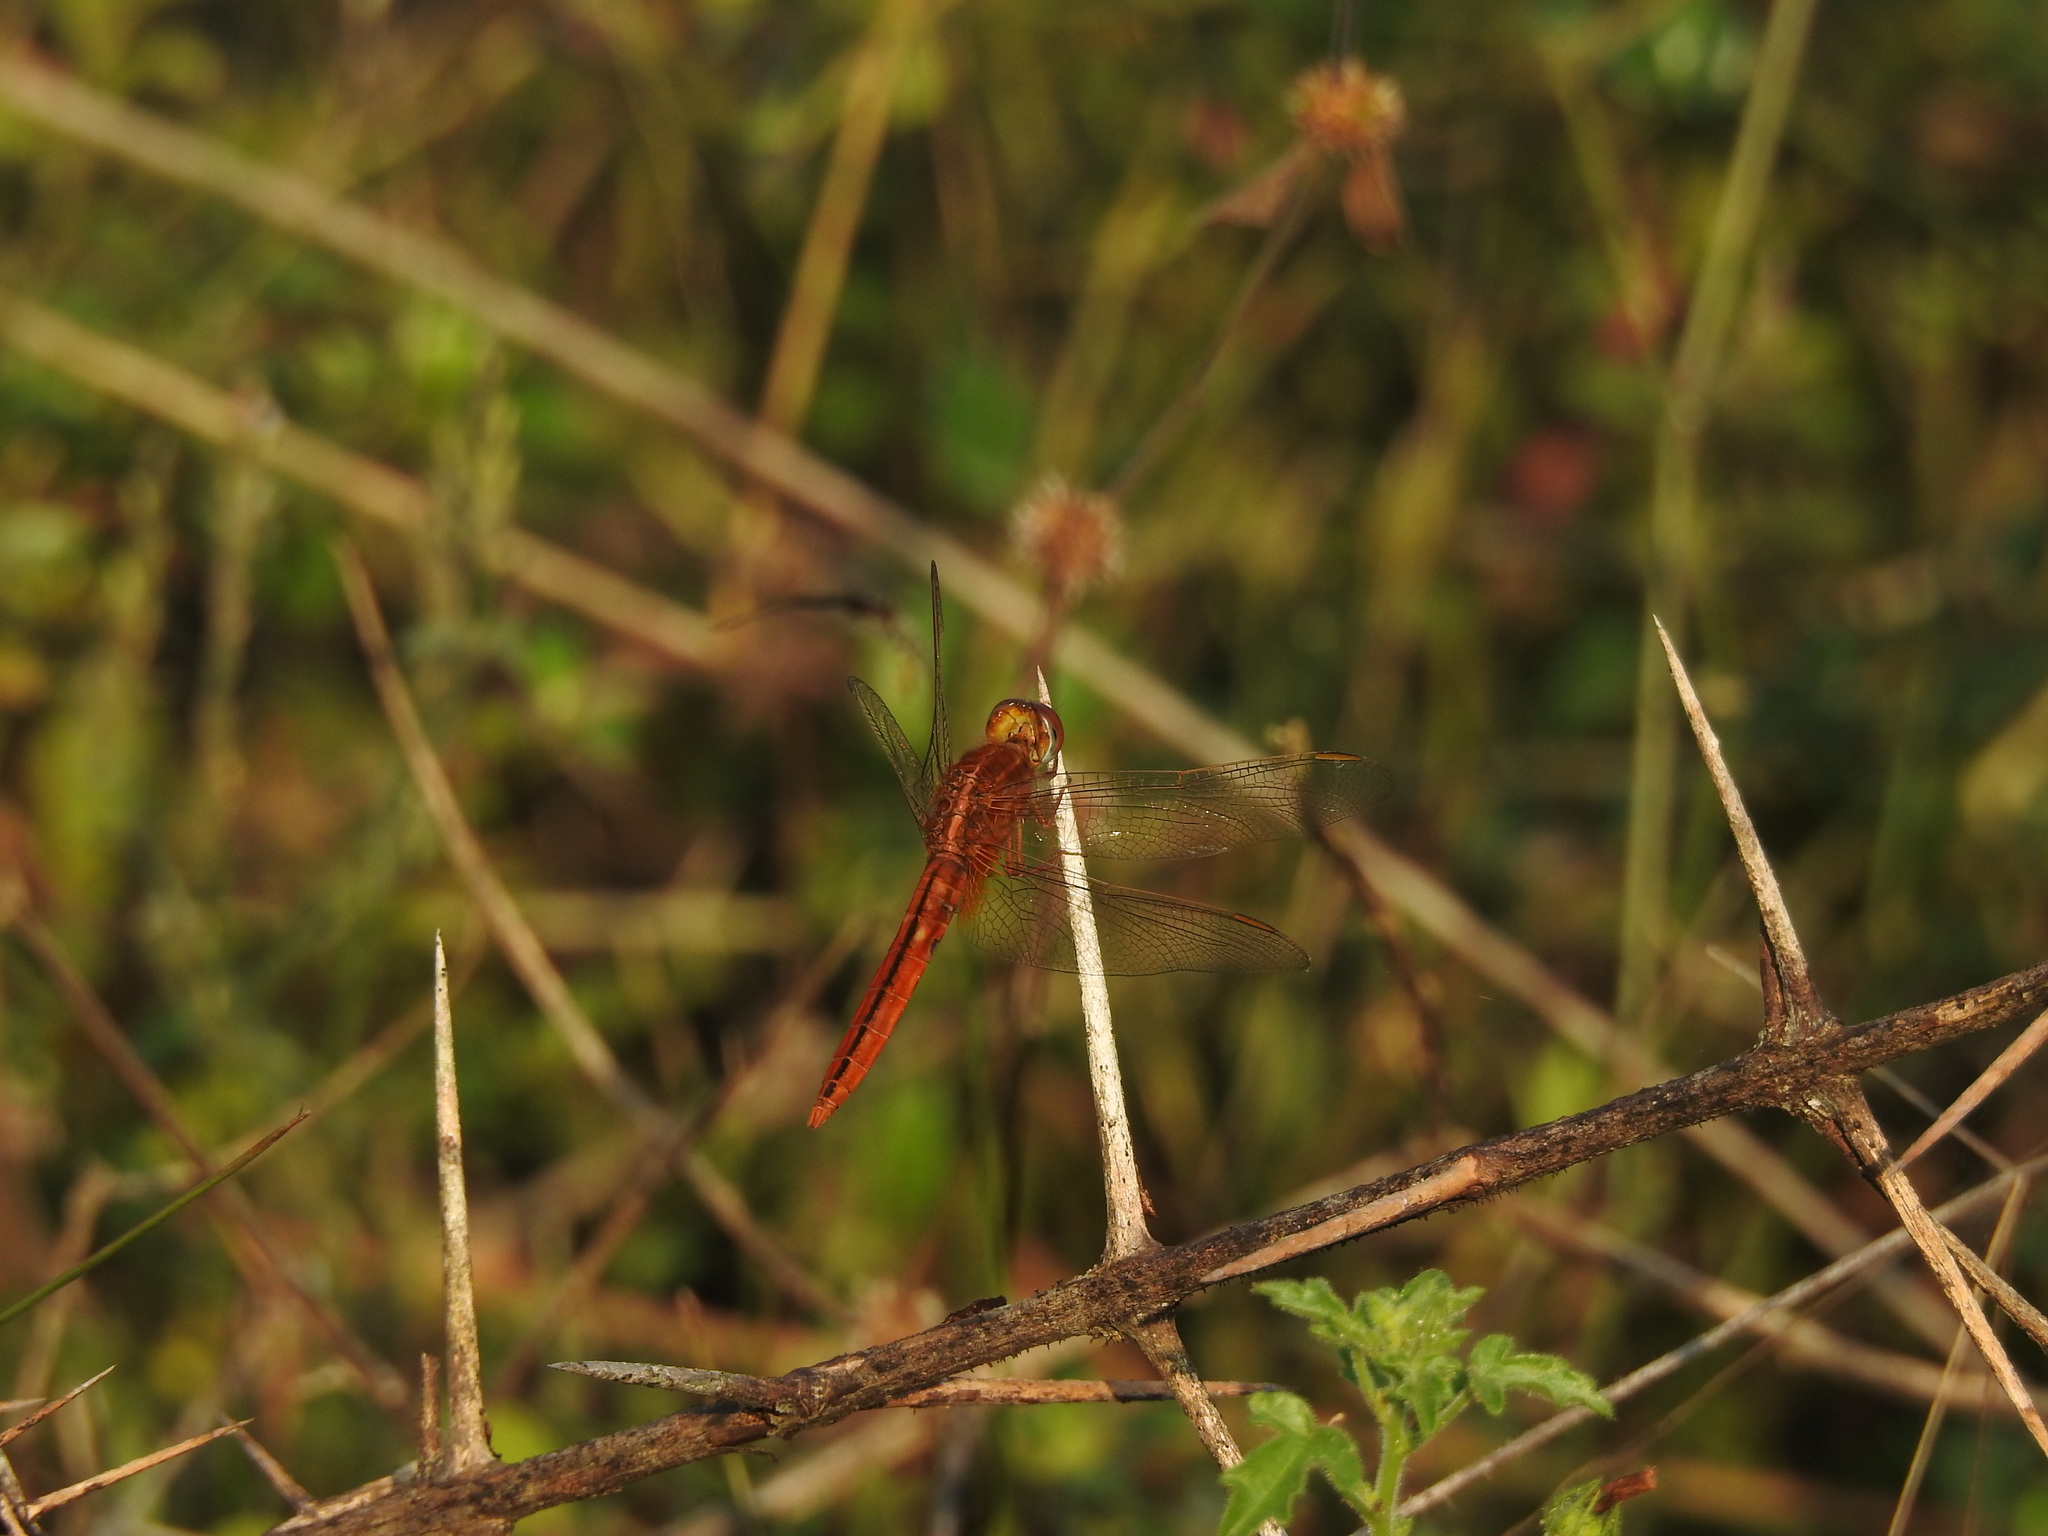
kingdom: Animalia
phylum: Arthropoda
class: Insecta
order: Odonata
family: Libellulidae
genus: Crocothemis
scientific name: Crocothemis servilia
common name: Scarlet skimmer
